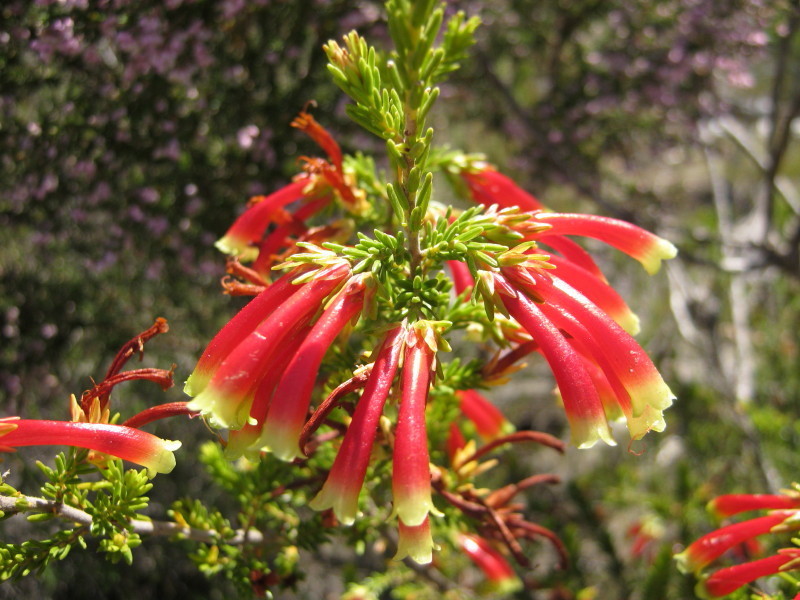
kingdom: Plantae
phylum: Tracheophyta
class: Magnoliopsida
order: Ericales
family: Ericaceae
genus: Erica
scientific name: Erica discolor
